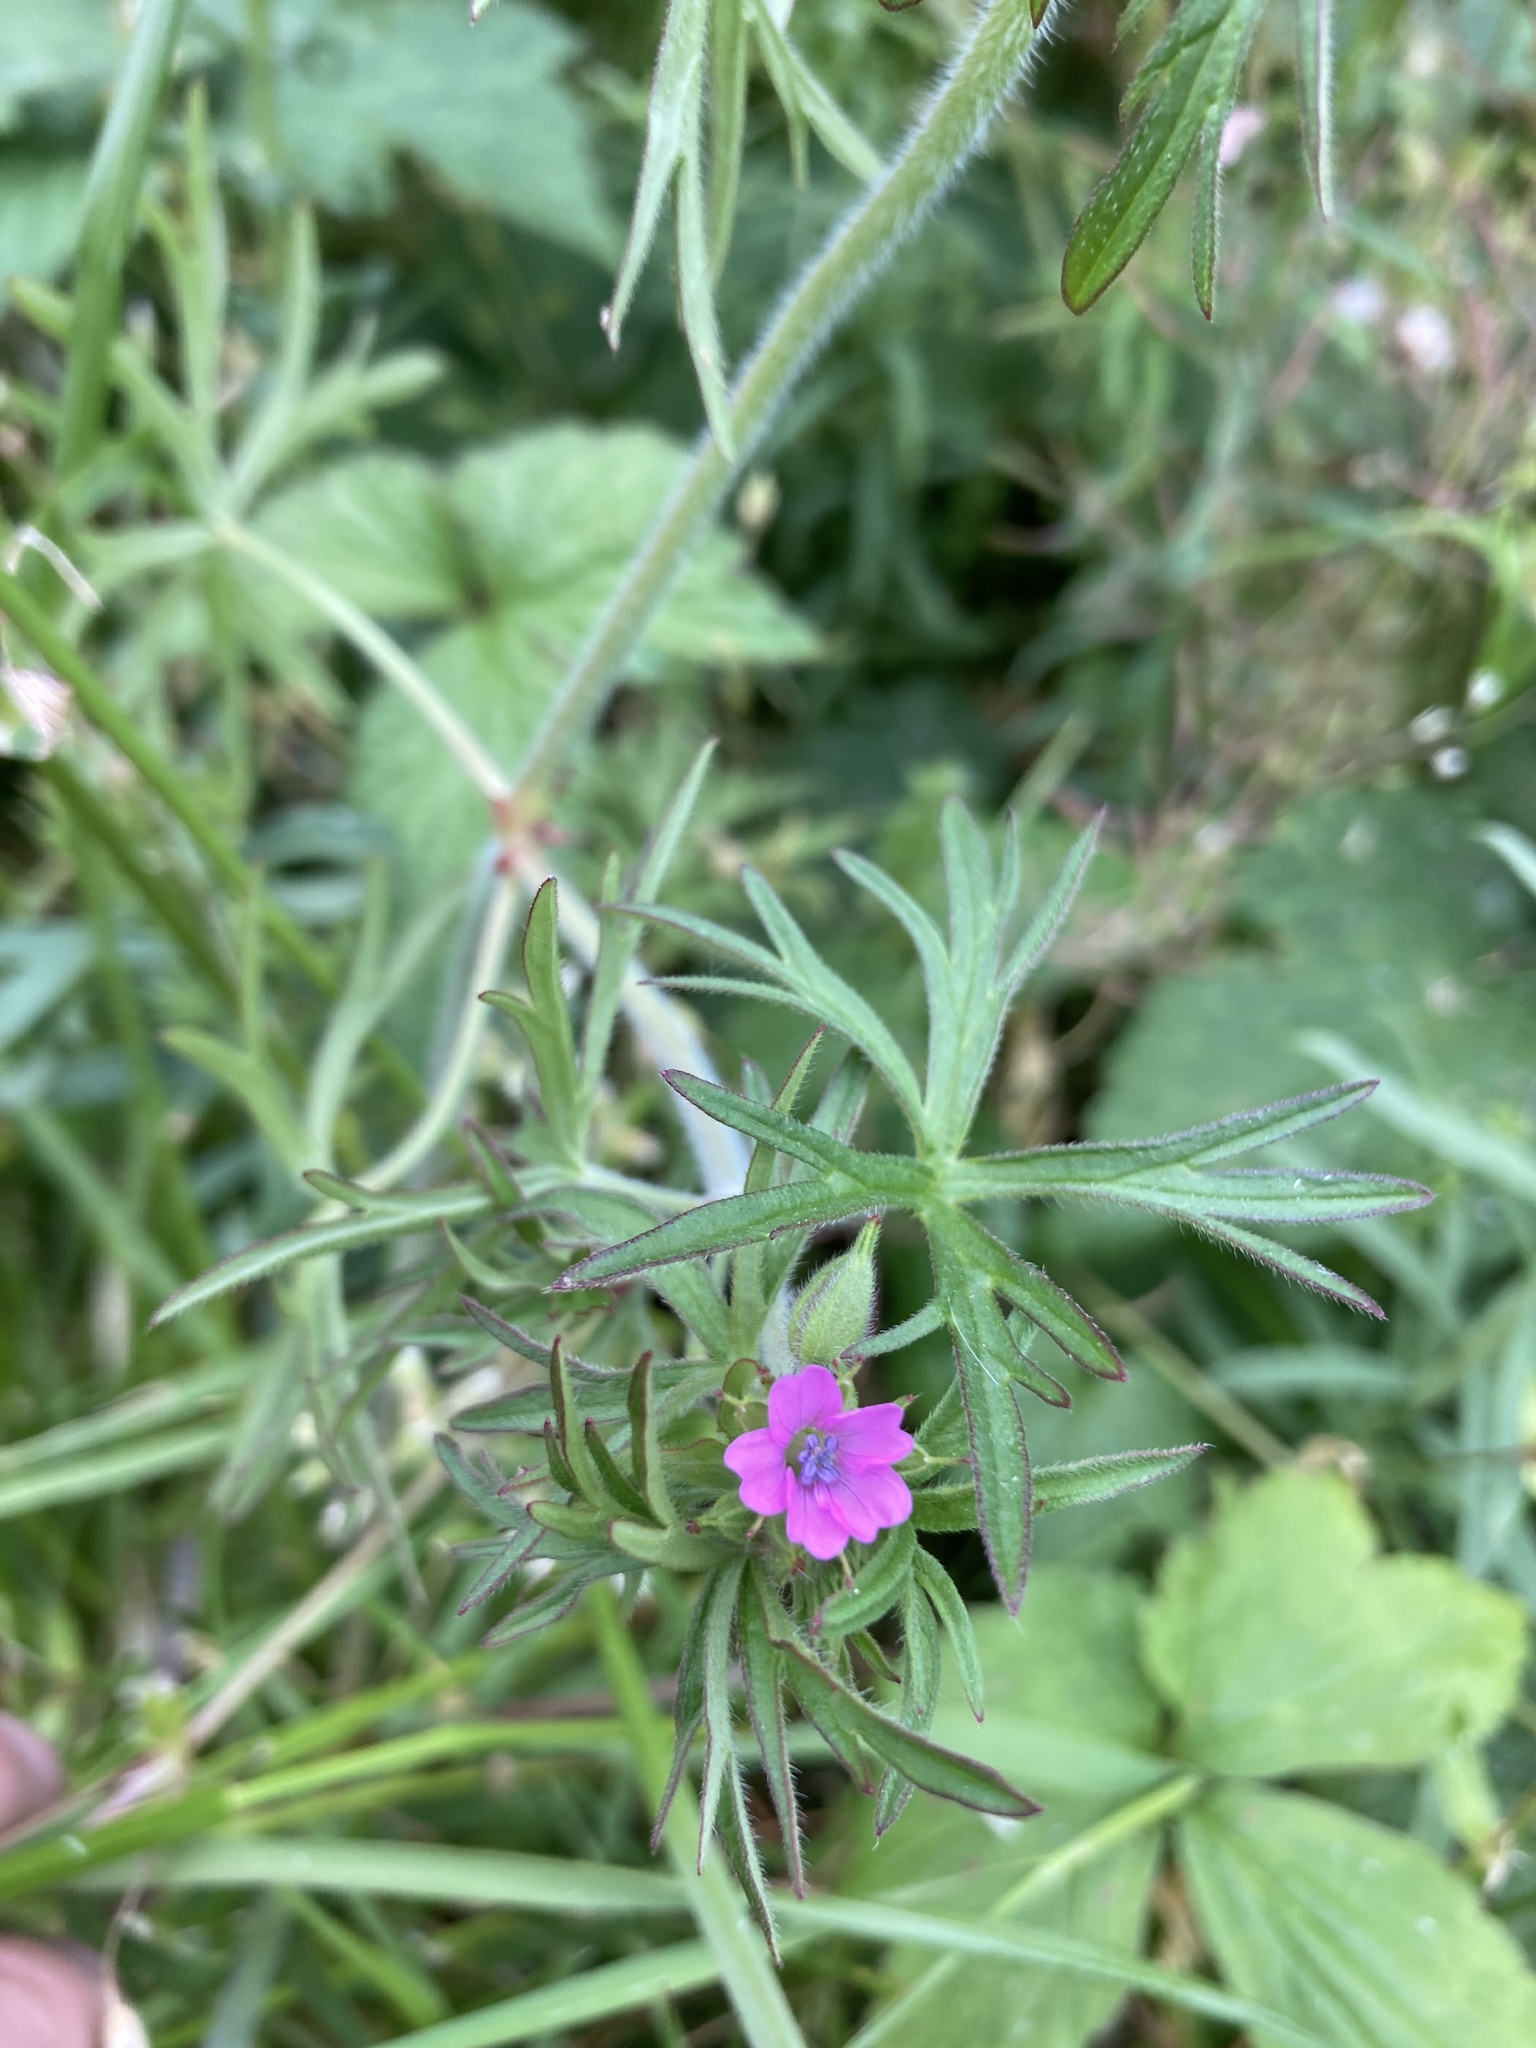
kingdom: Plantae
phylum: Tracheophyta
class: Magnoliopsida
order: Geraniales
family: Geraniaceae
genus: Geranium
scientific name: Geranium dissectum
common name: Cut-leaved crane's-bill
